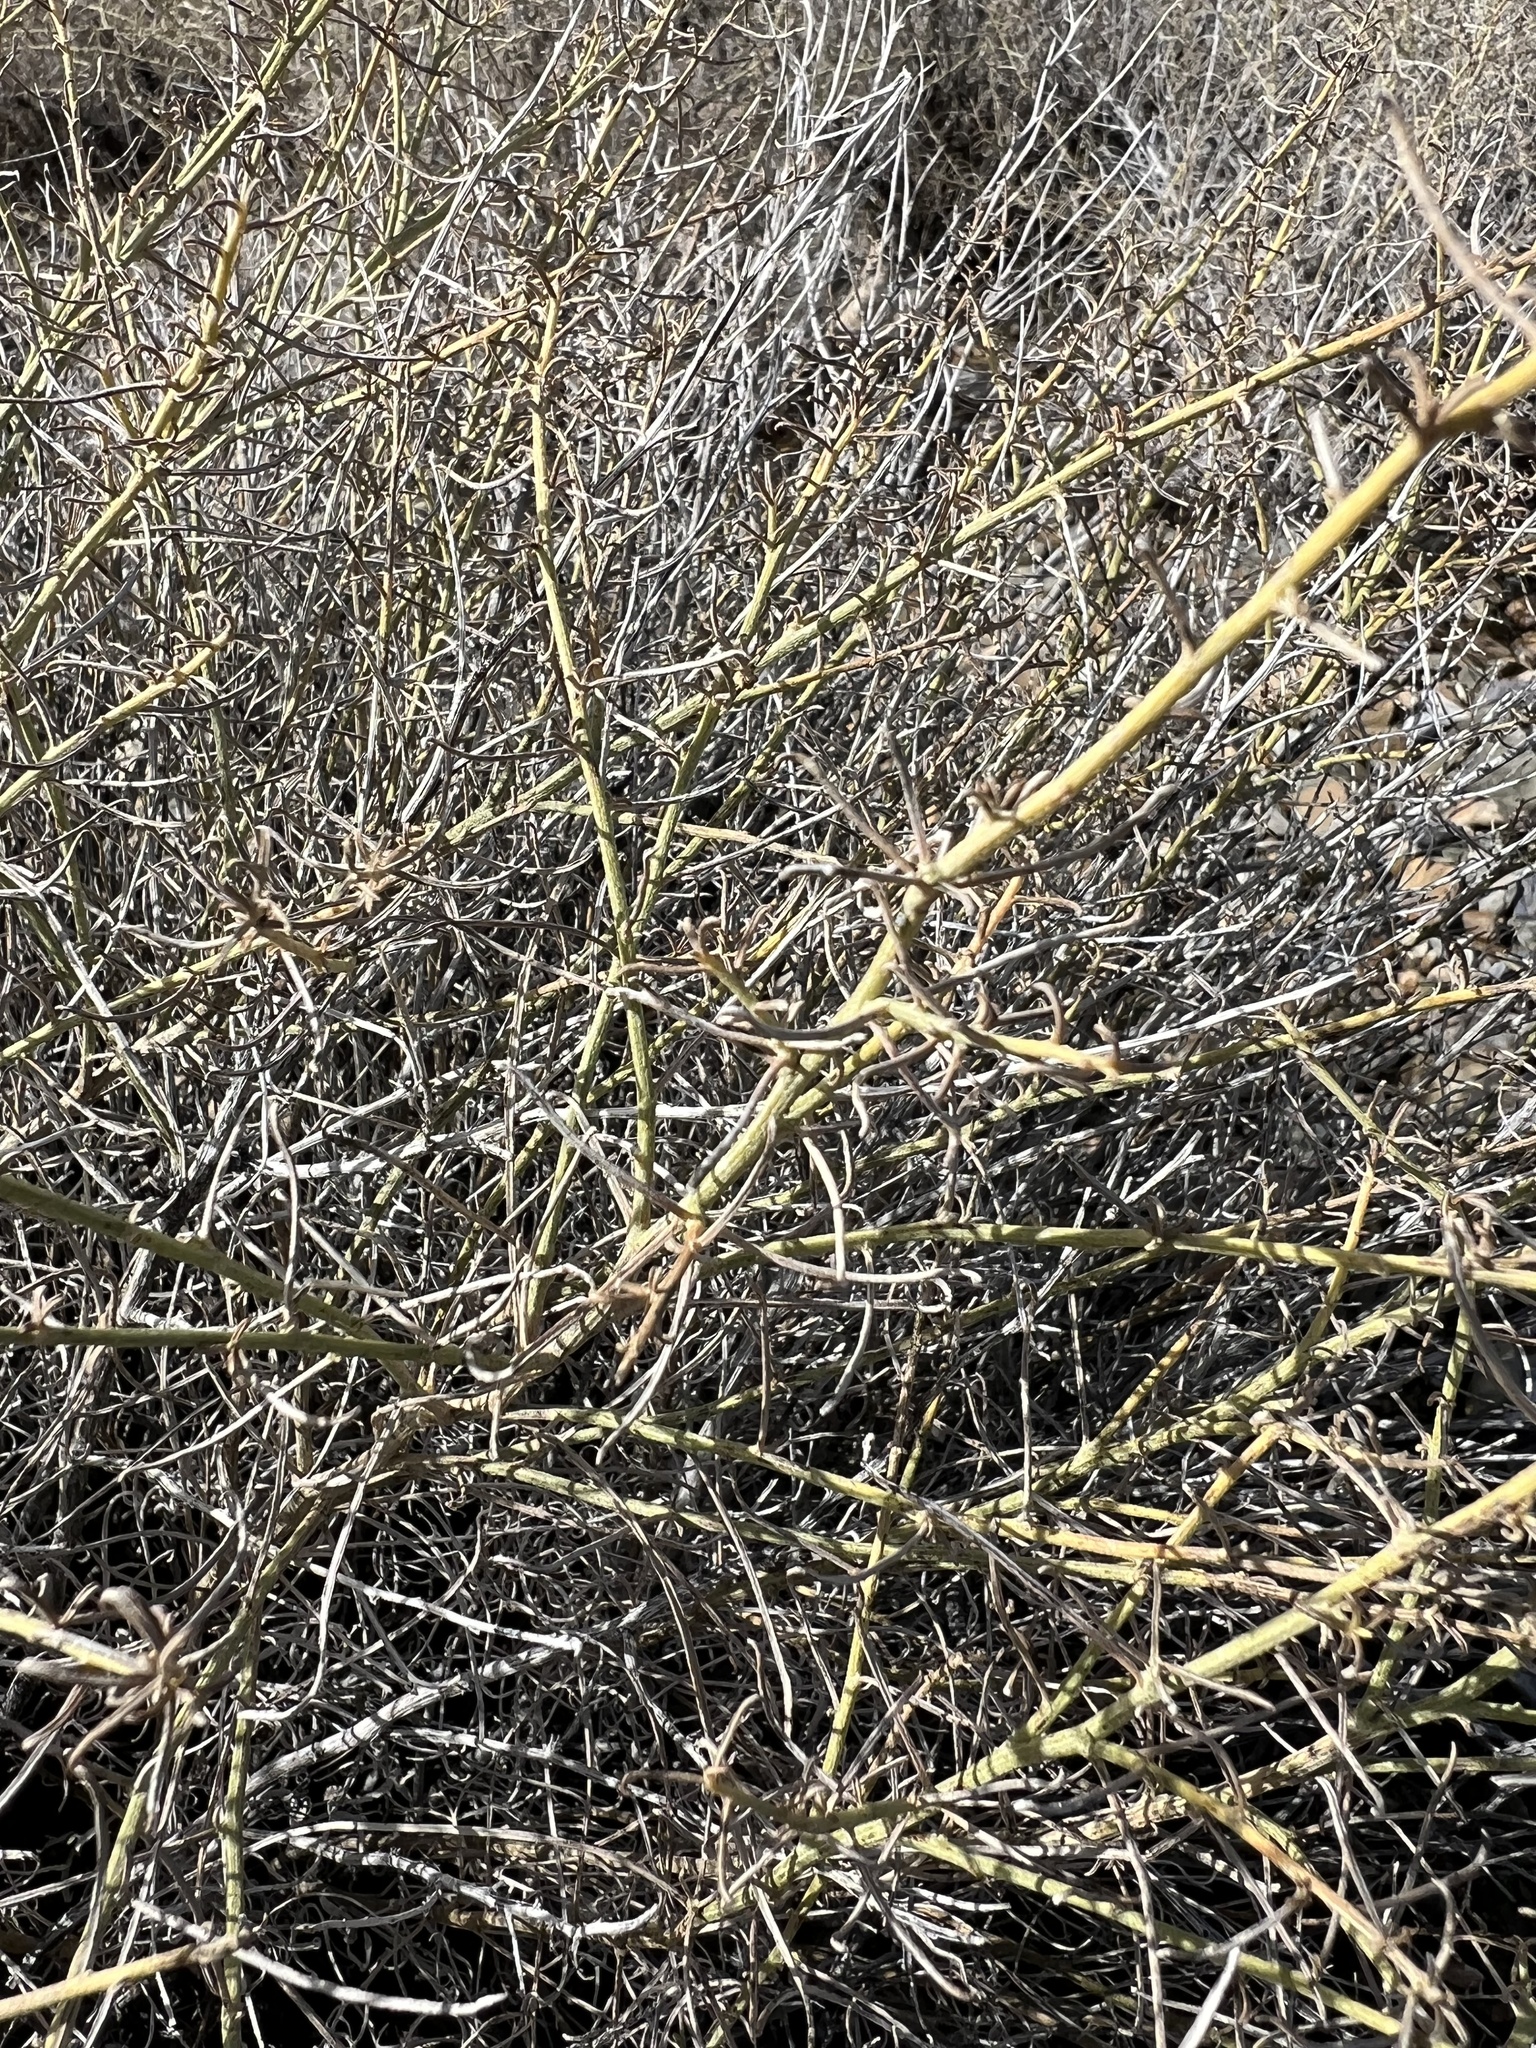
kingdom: Plantae
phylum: Tracheophyta
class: Magnoliopsida
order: Asterales
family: Asteraceae
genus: Ambrosia
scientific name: Ambrosia salsola
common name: Burrobrush
